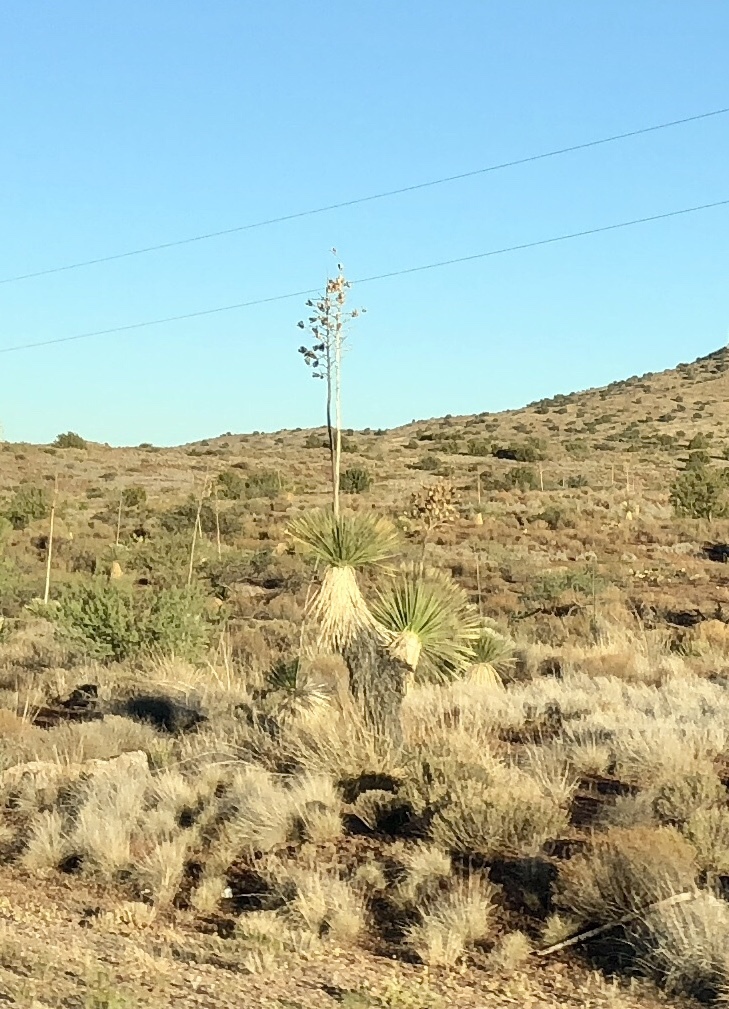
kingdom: Plantae
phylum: Tracheophyta
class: Liliopsida
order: Asparagales
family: Asparagaceae
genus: Yucca
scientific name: Yucca elata
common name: Palmella
